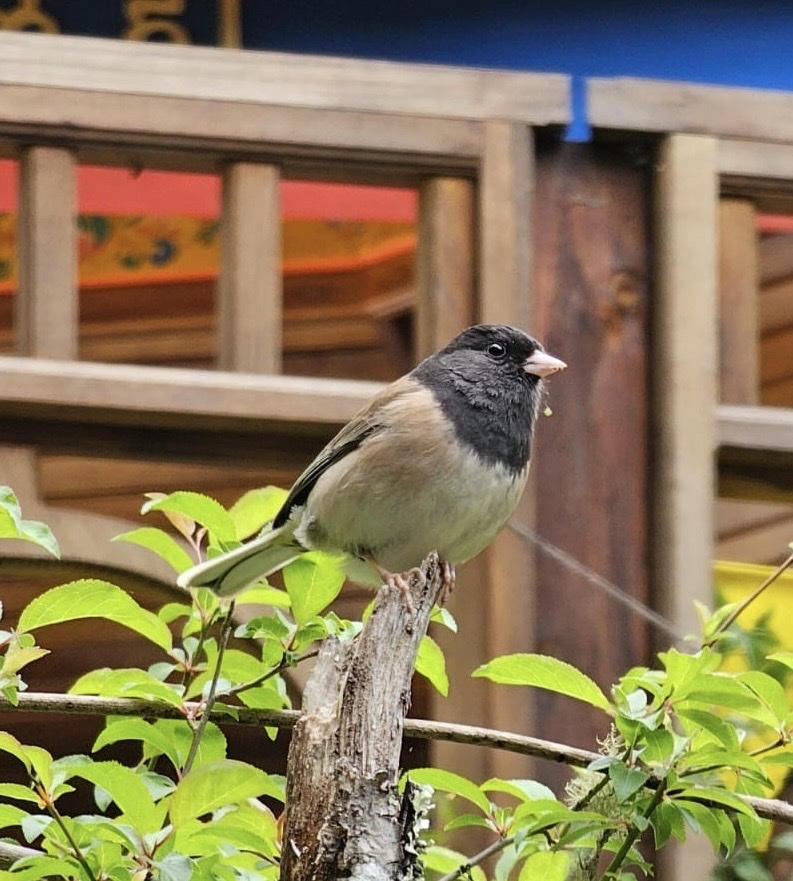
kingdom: Animalia
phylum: Chordata
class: Aves
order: Passeriformes
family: Passerellidae
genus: Junco
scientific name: Junco hyemalis
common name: Dark-eyed junco
